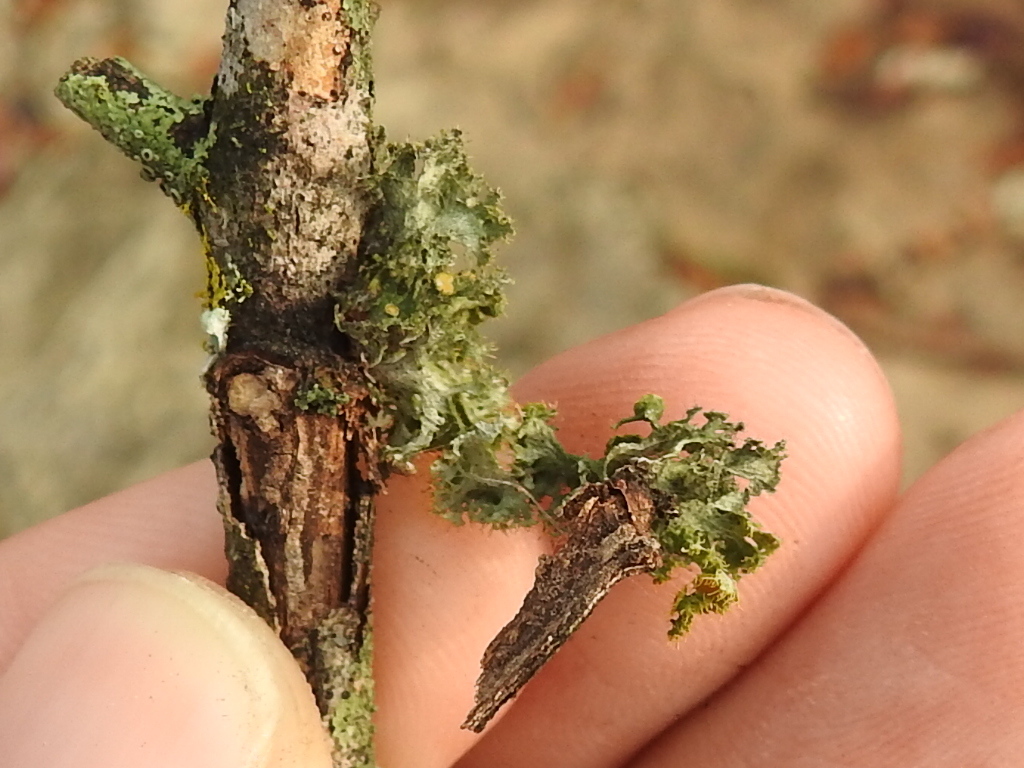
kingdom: Fungi
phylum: Ascomycota
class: Lecanoromycetes
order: Teloschistales
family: Teloschistaceae
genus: Niorma
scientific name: Niorma chrysophthalma
